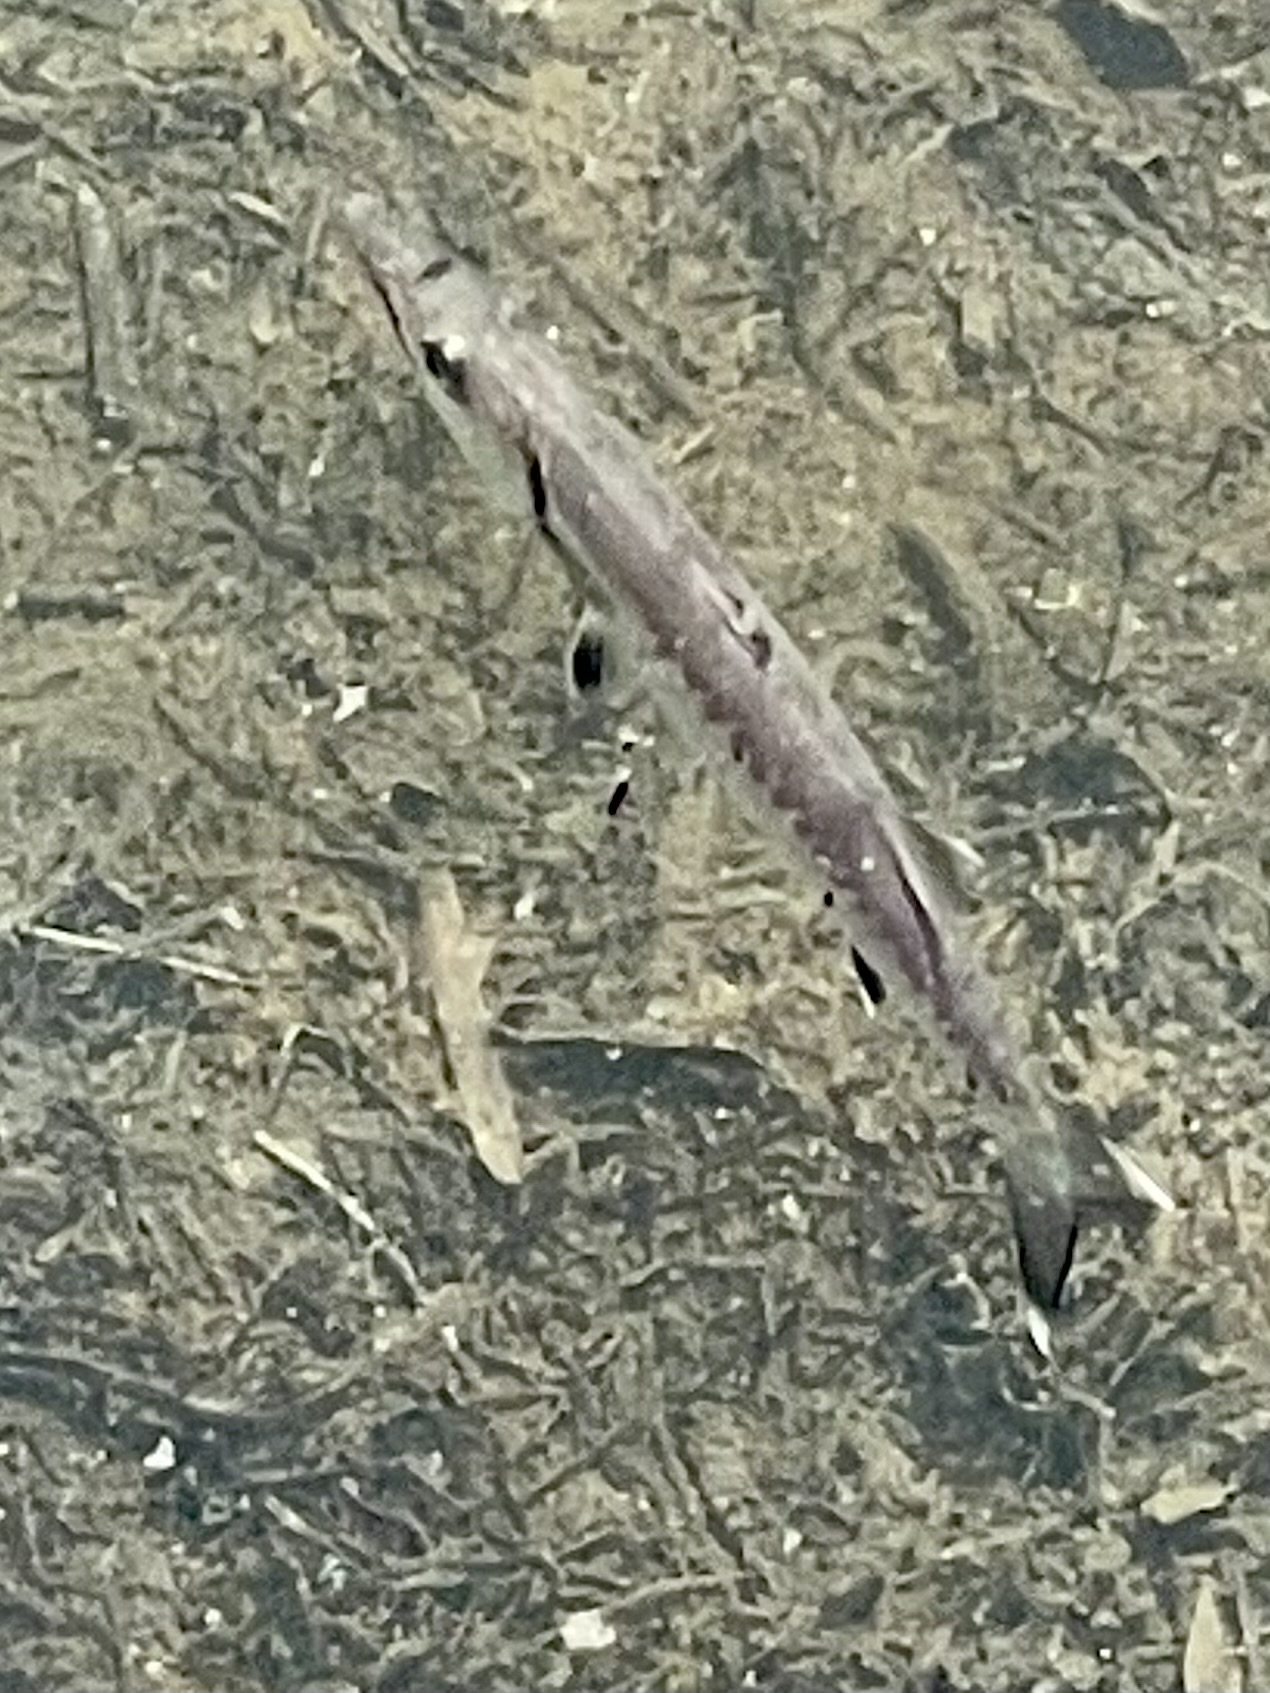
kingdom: Animalia
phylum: Chordata
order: Perciformes
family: Sphyraenidae
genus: Sphyraena
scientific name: Sphyraena barracuda
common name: Great barracuda
